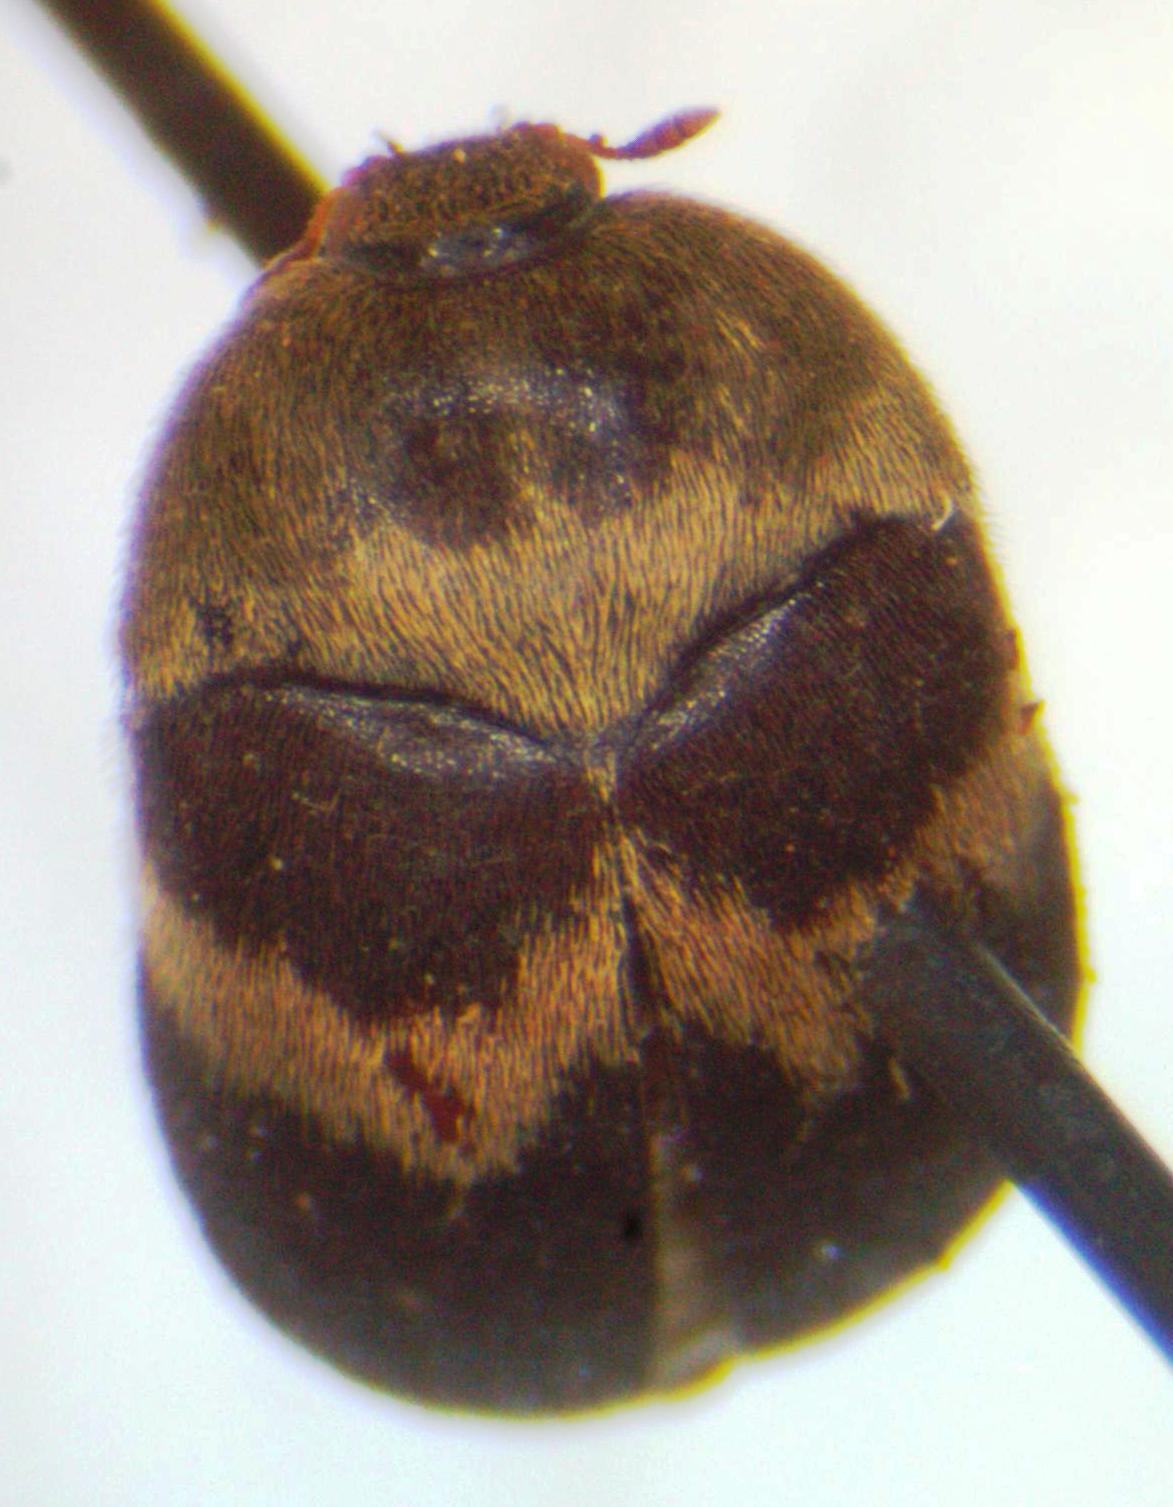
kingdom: Animalia
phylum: Arthropoda
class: Insecta
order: Coleoptera
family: Dermestidae
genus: Attagenus
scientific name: Attagenus fasciatus
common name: Wardrobe beetle
